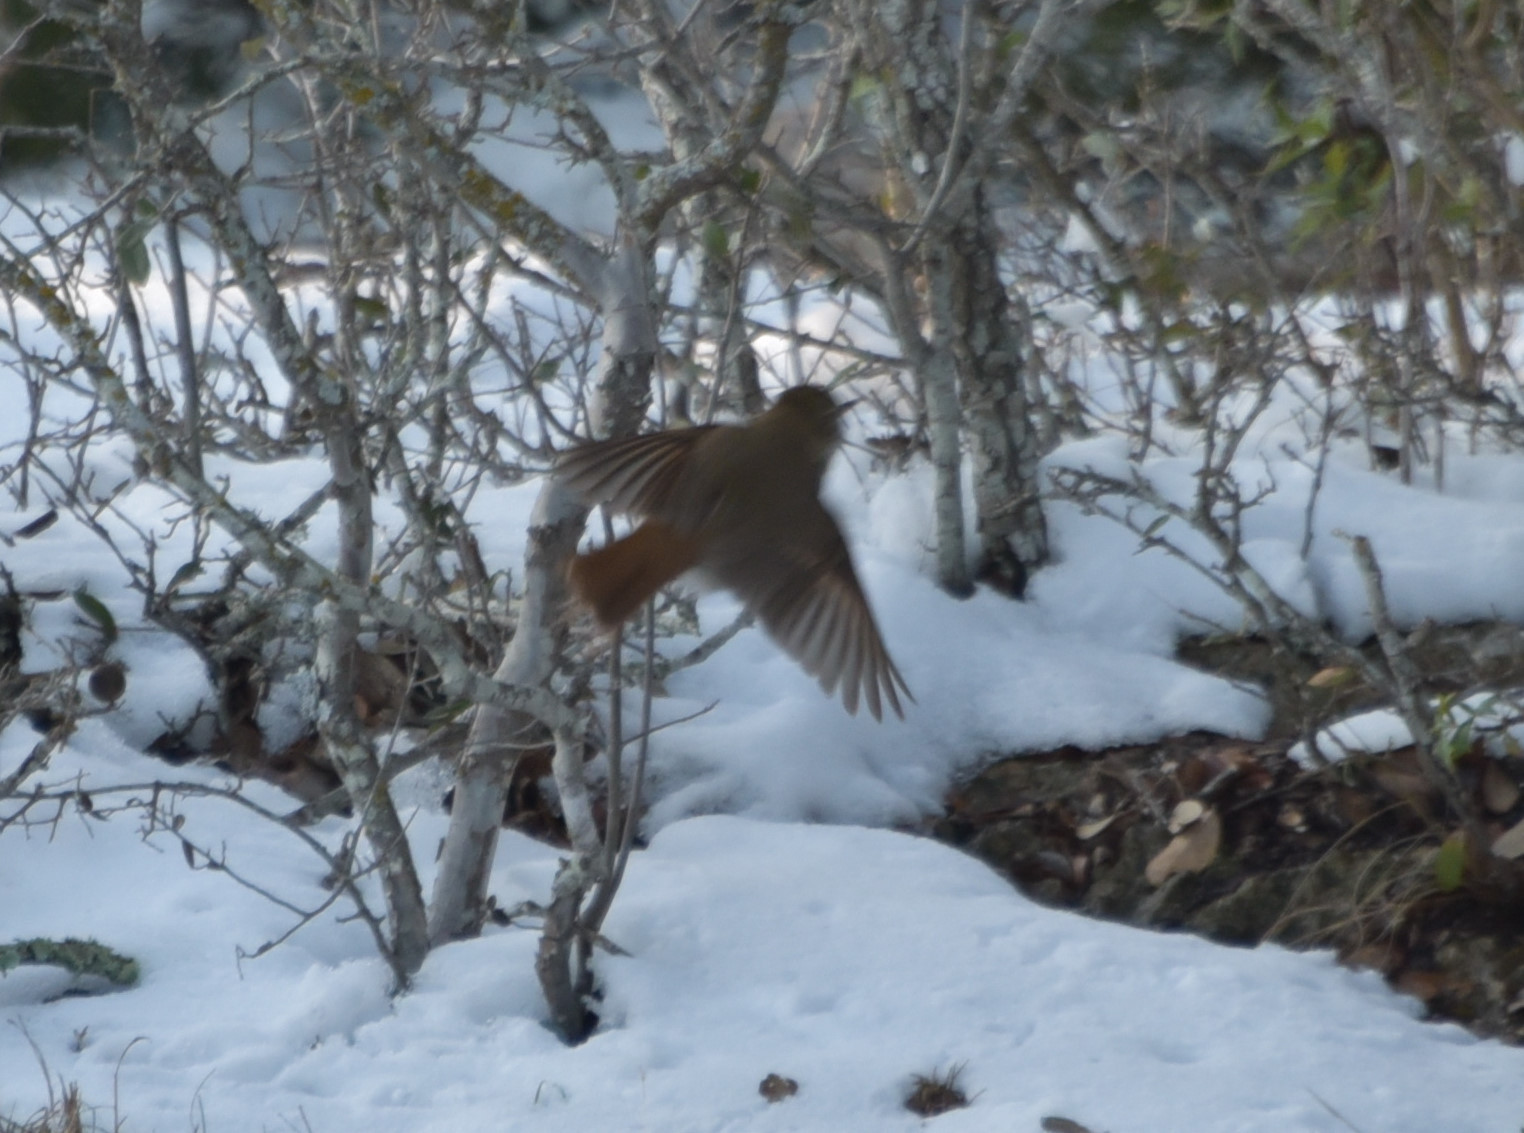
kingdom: Animalia
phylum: Chordata
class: Aves
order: Passeriformes
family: Turdidae
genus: Catharus
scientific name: Catharus guttatus
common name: Hermit thrush
